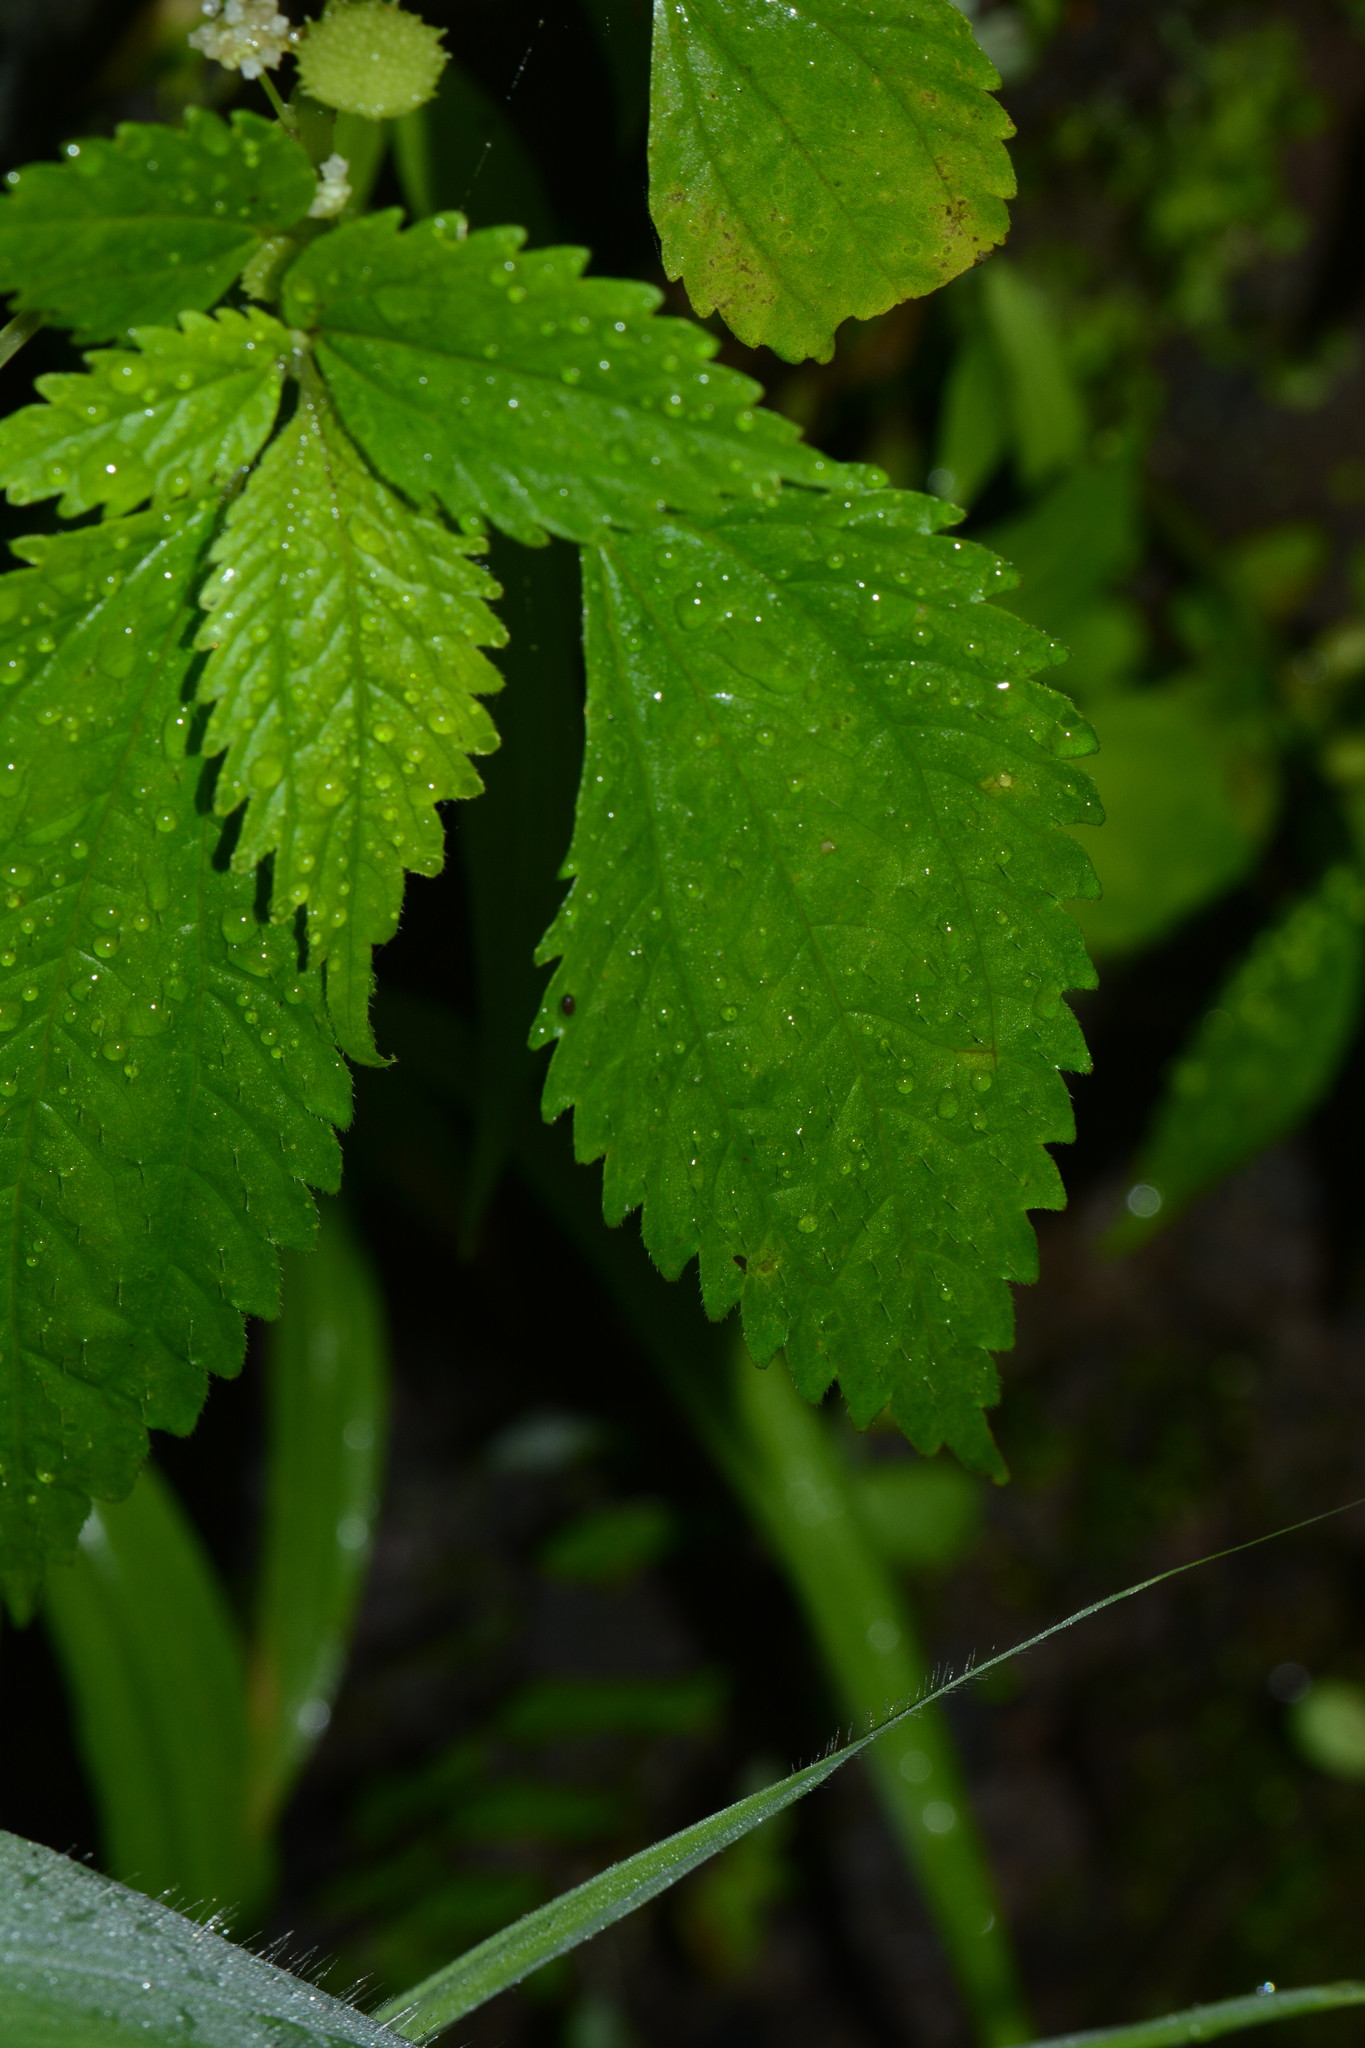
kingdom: Plantae
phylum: Tracheophyta
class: Magnoliopsida
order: Rosales
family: Urticaceae
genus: Lecanthus
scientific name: Lecanthus peduncularis
